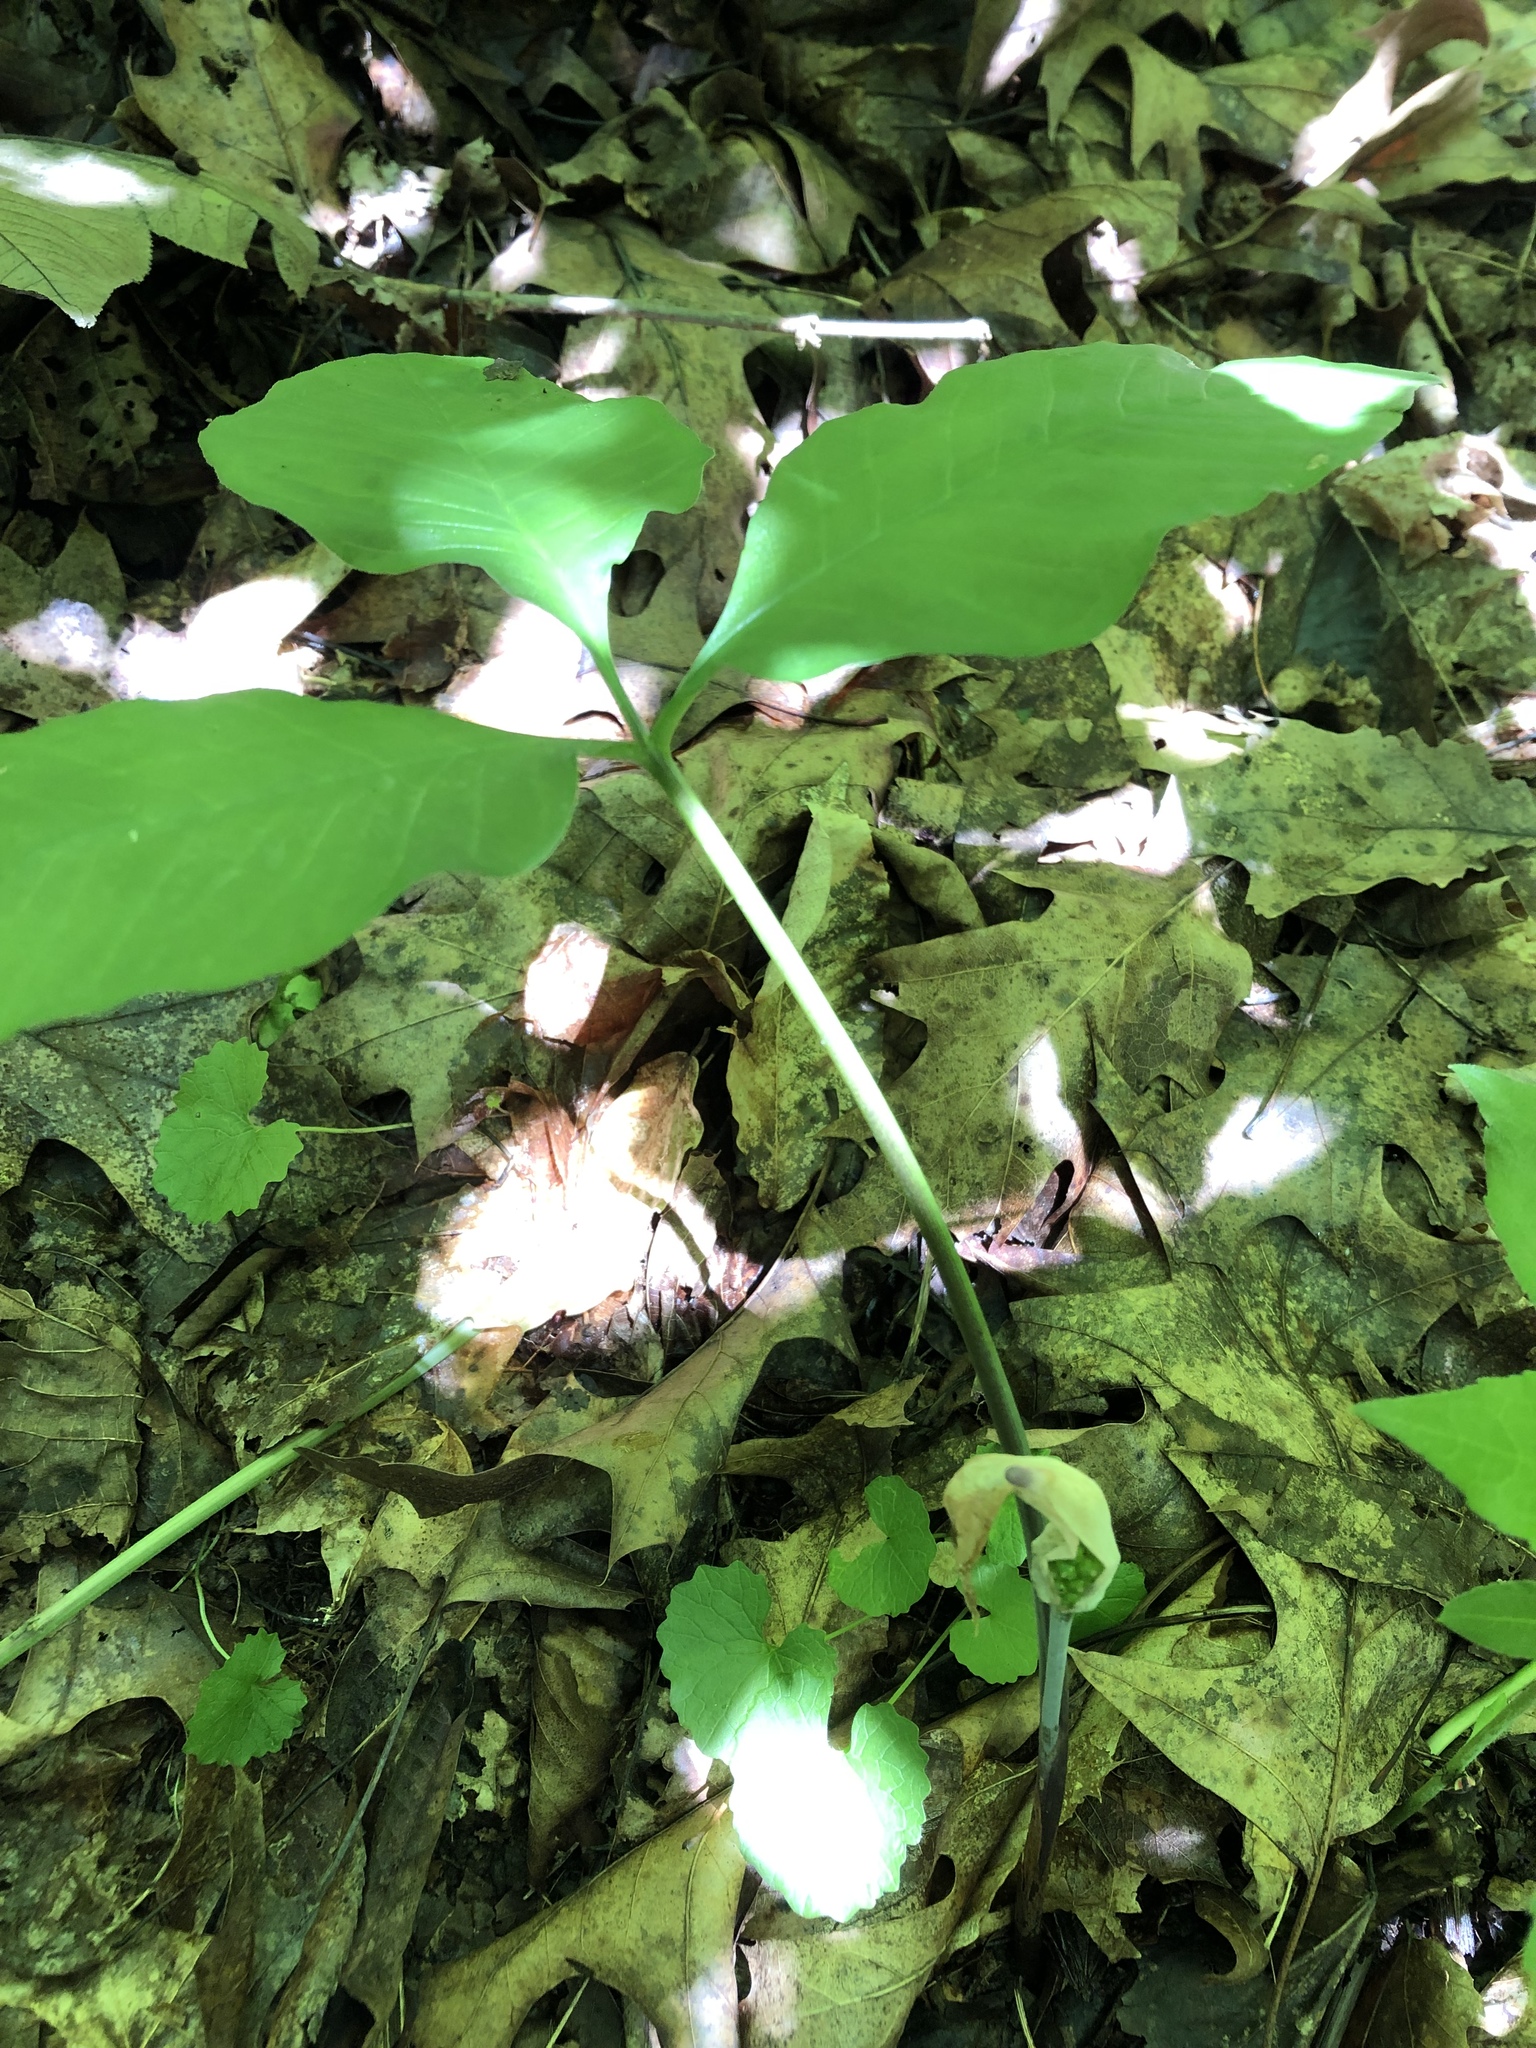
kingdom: Plantae
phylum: Tracheophyta
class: Liliopsida
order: Alismatales
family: Araceae
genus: Arisaema
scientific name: Arisaema triphyllum
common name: Jack-in-the-pulpit
